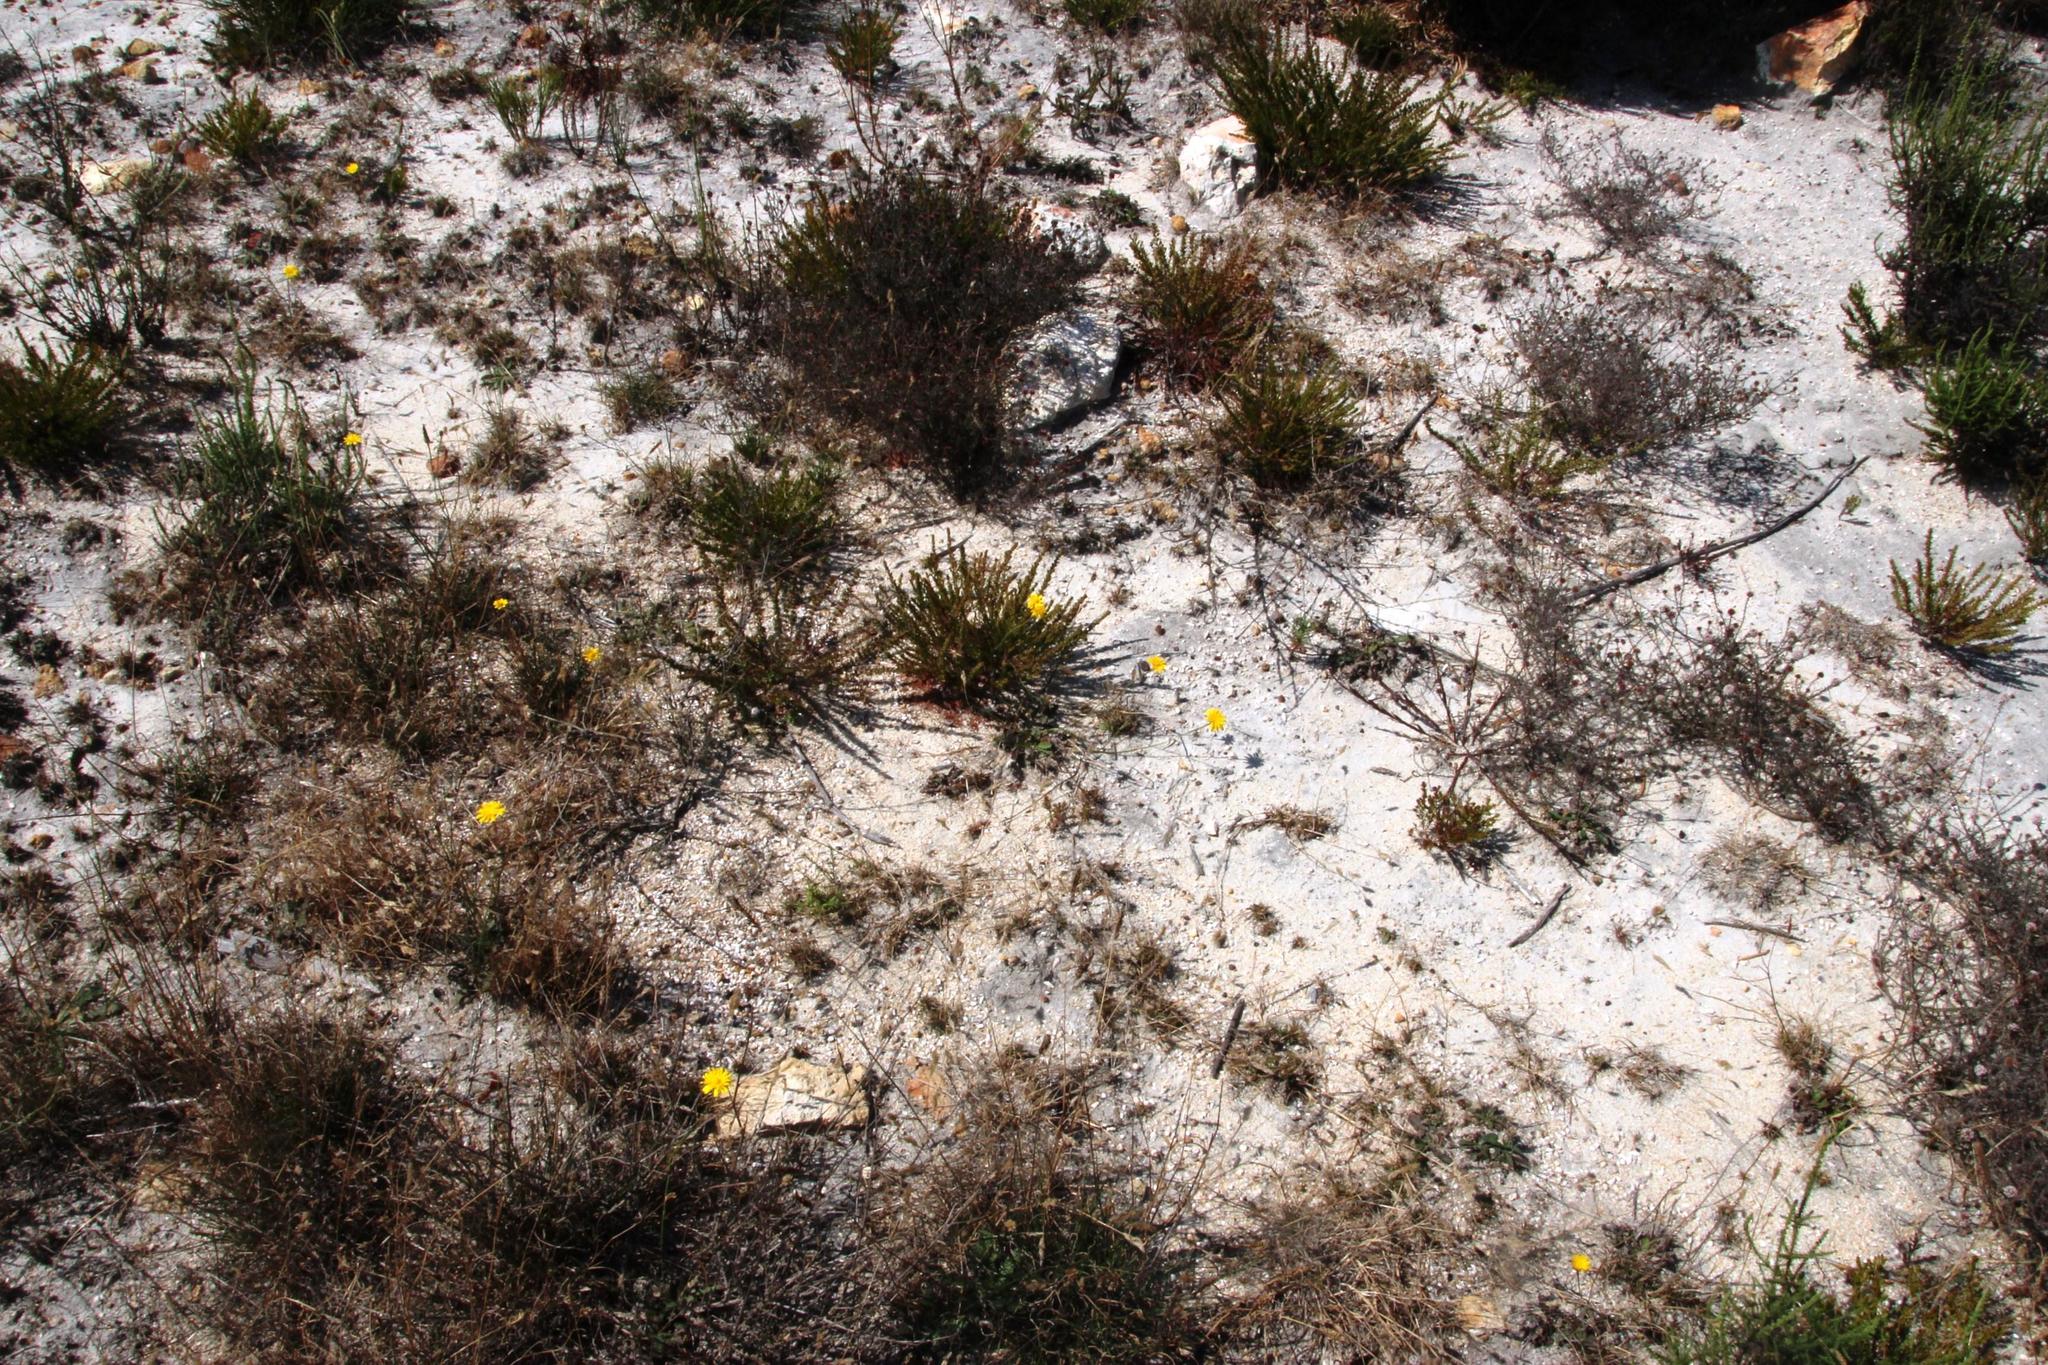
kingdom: Plantae
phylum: Tracheophyta
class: Magnoliopsida
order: Asterales
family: Asteraceae
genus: Hypochaeris
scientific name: Hypochaeris radicata
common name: Flatweed
